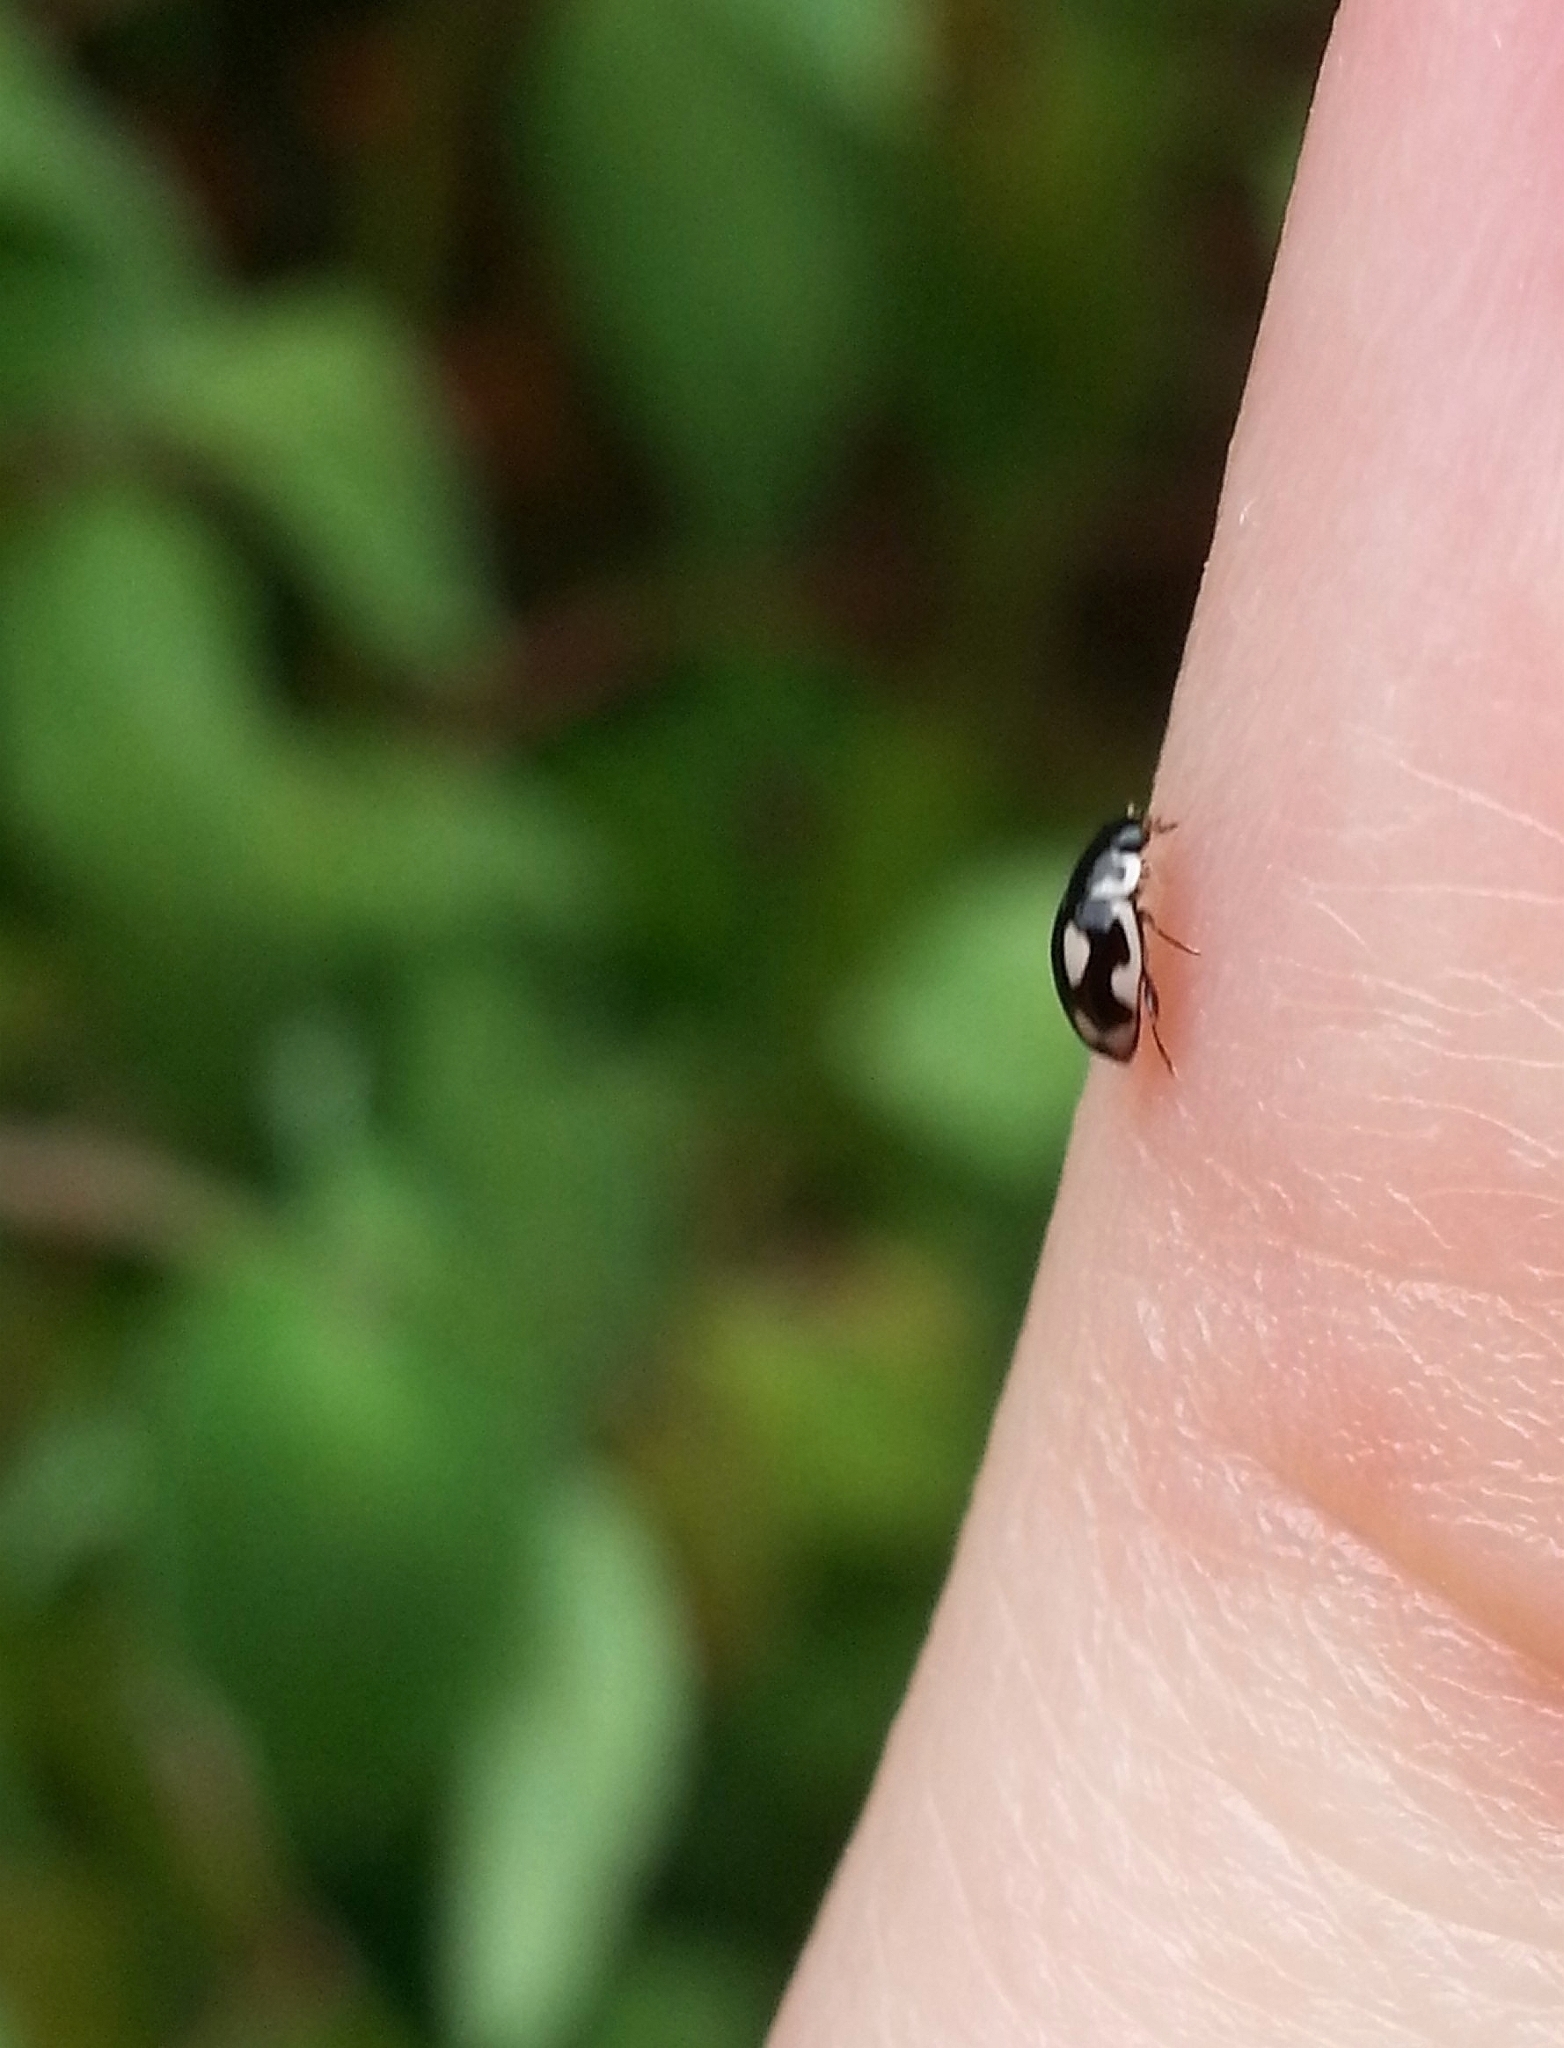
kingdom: Animalia
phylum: Arthropoda
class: Insecta
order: Coleoptera
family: Coccinellidae
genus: Hyperaspis
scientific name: Hyperaspis festiva
